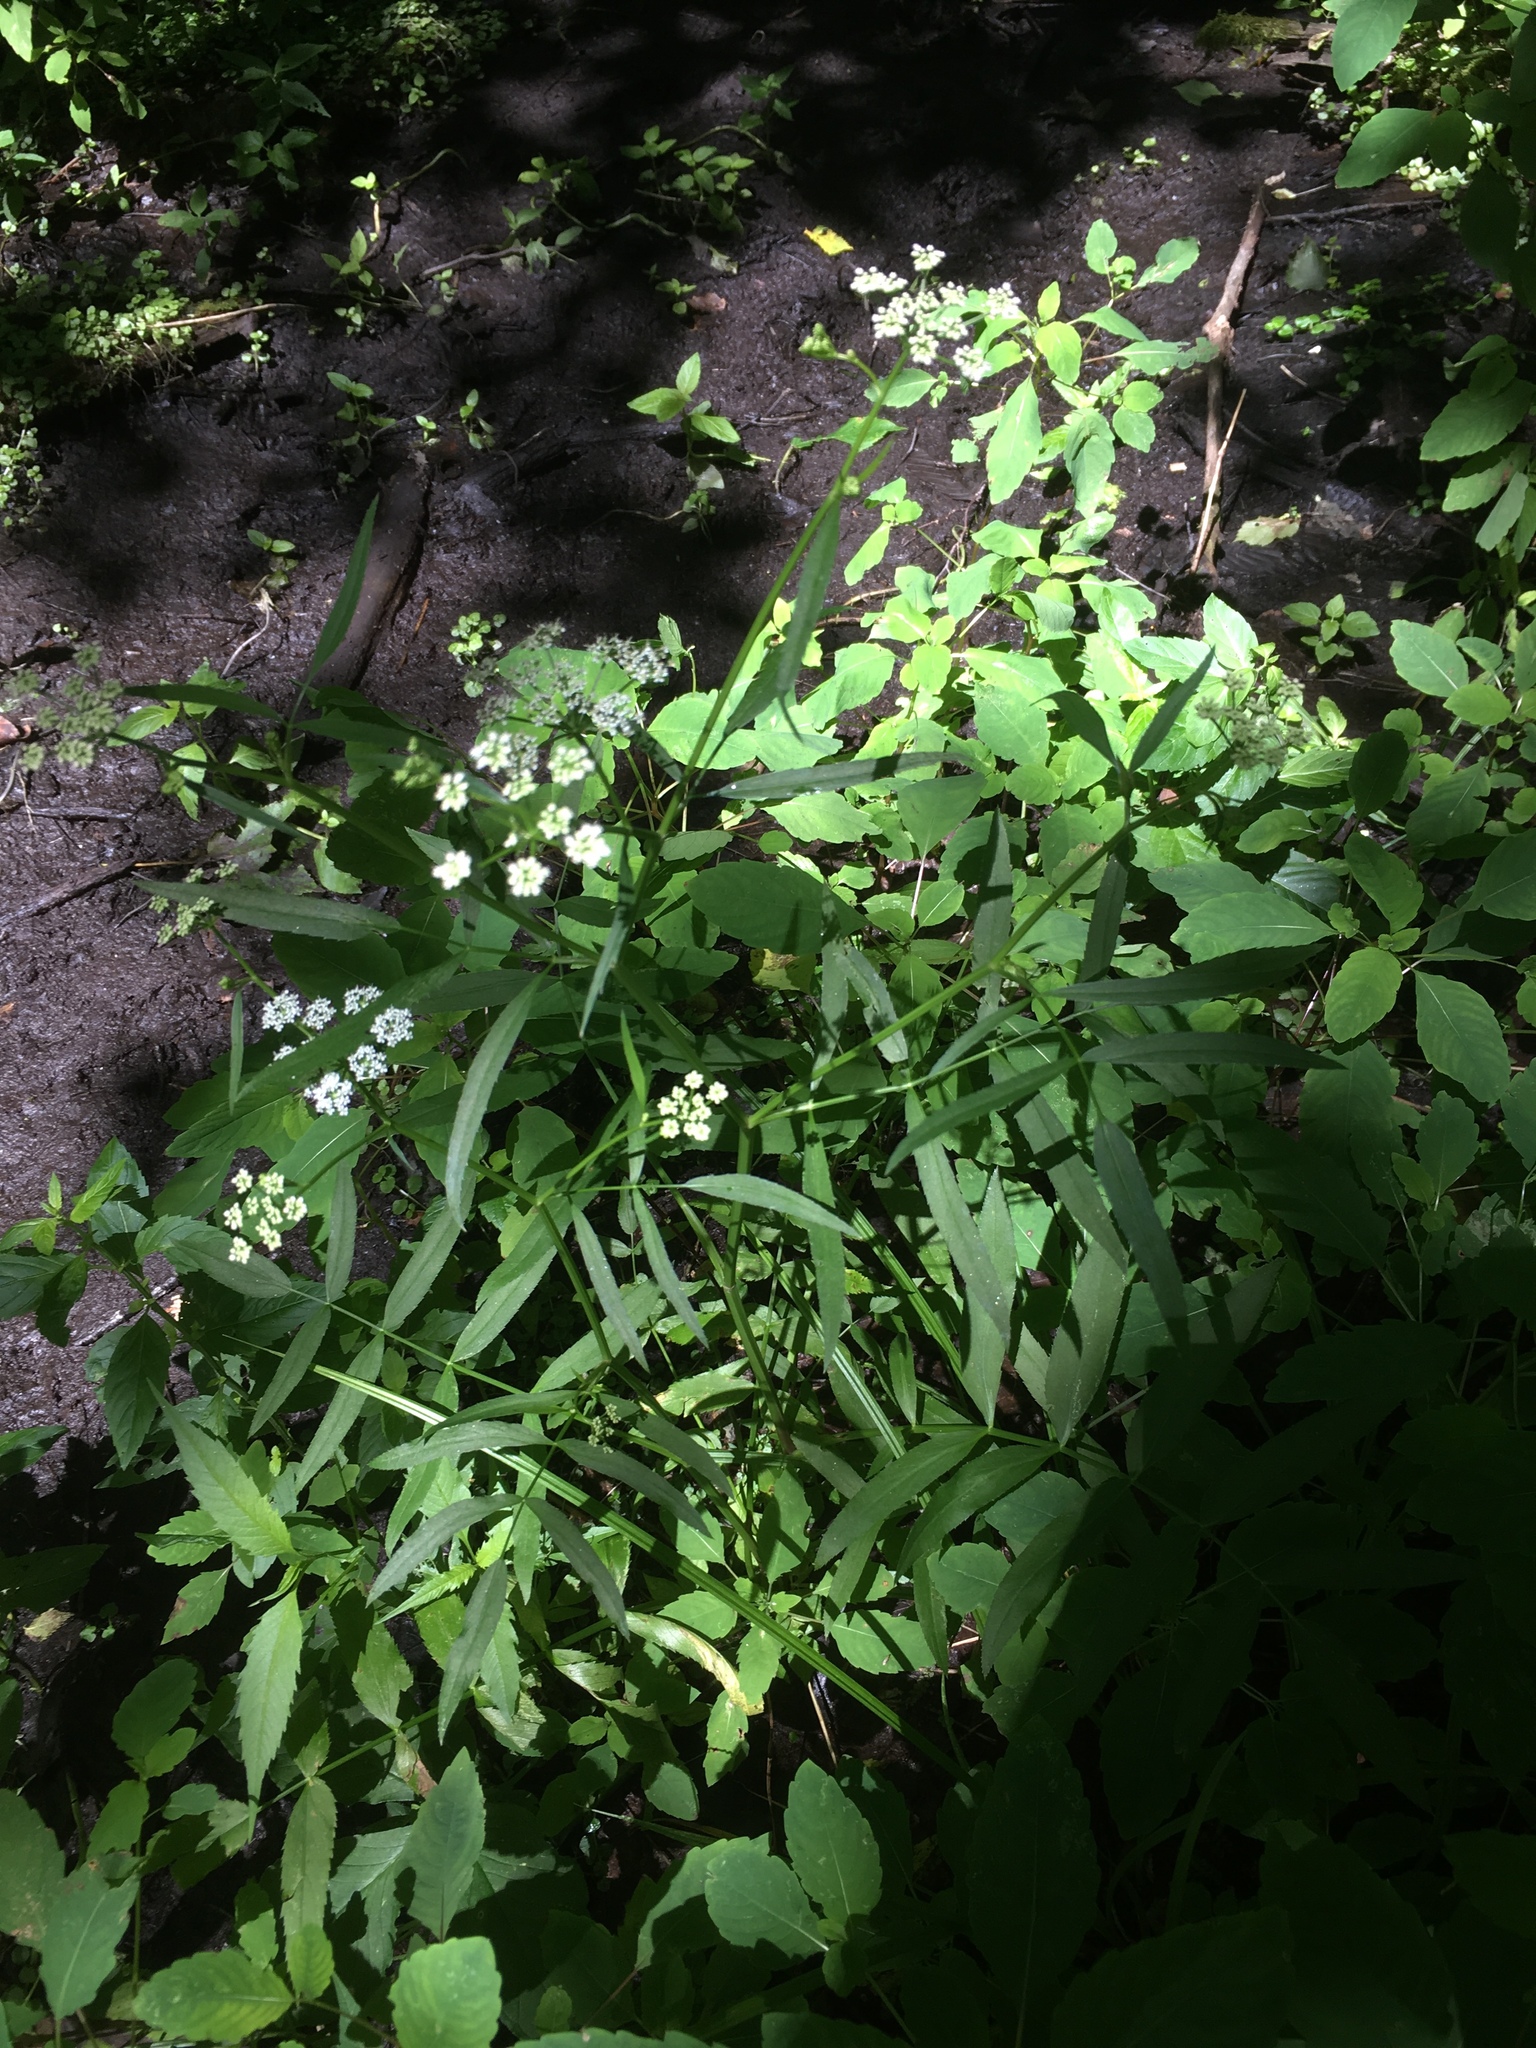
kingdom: Plantae
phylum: Tracheophyta
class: Magnoliopsida
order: Apiales
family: Apiaceae
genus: Sium
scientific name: Sium suave
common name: Hemlock water-parsnip
